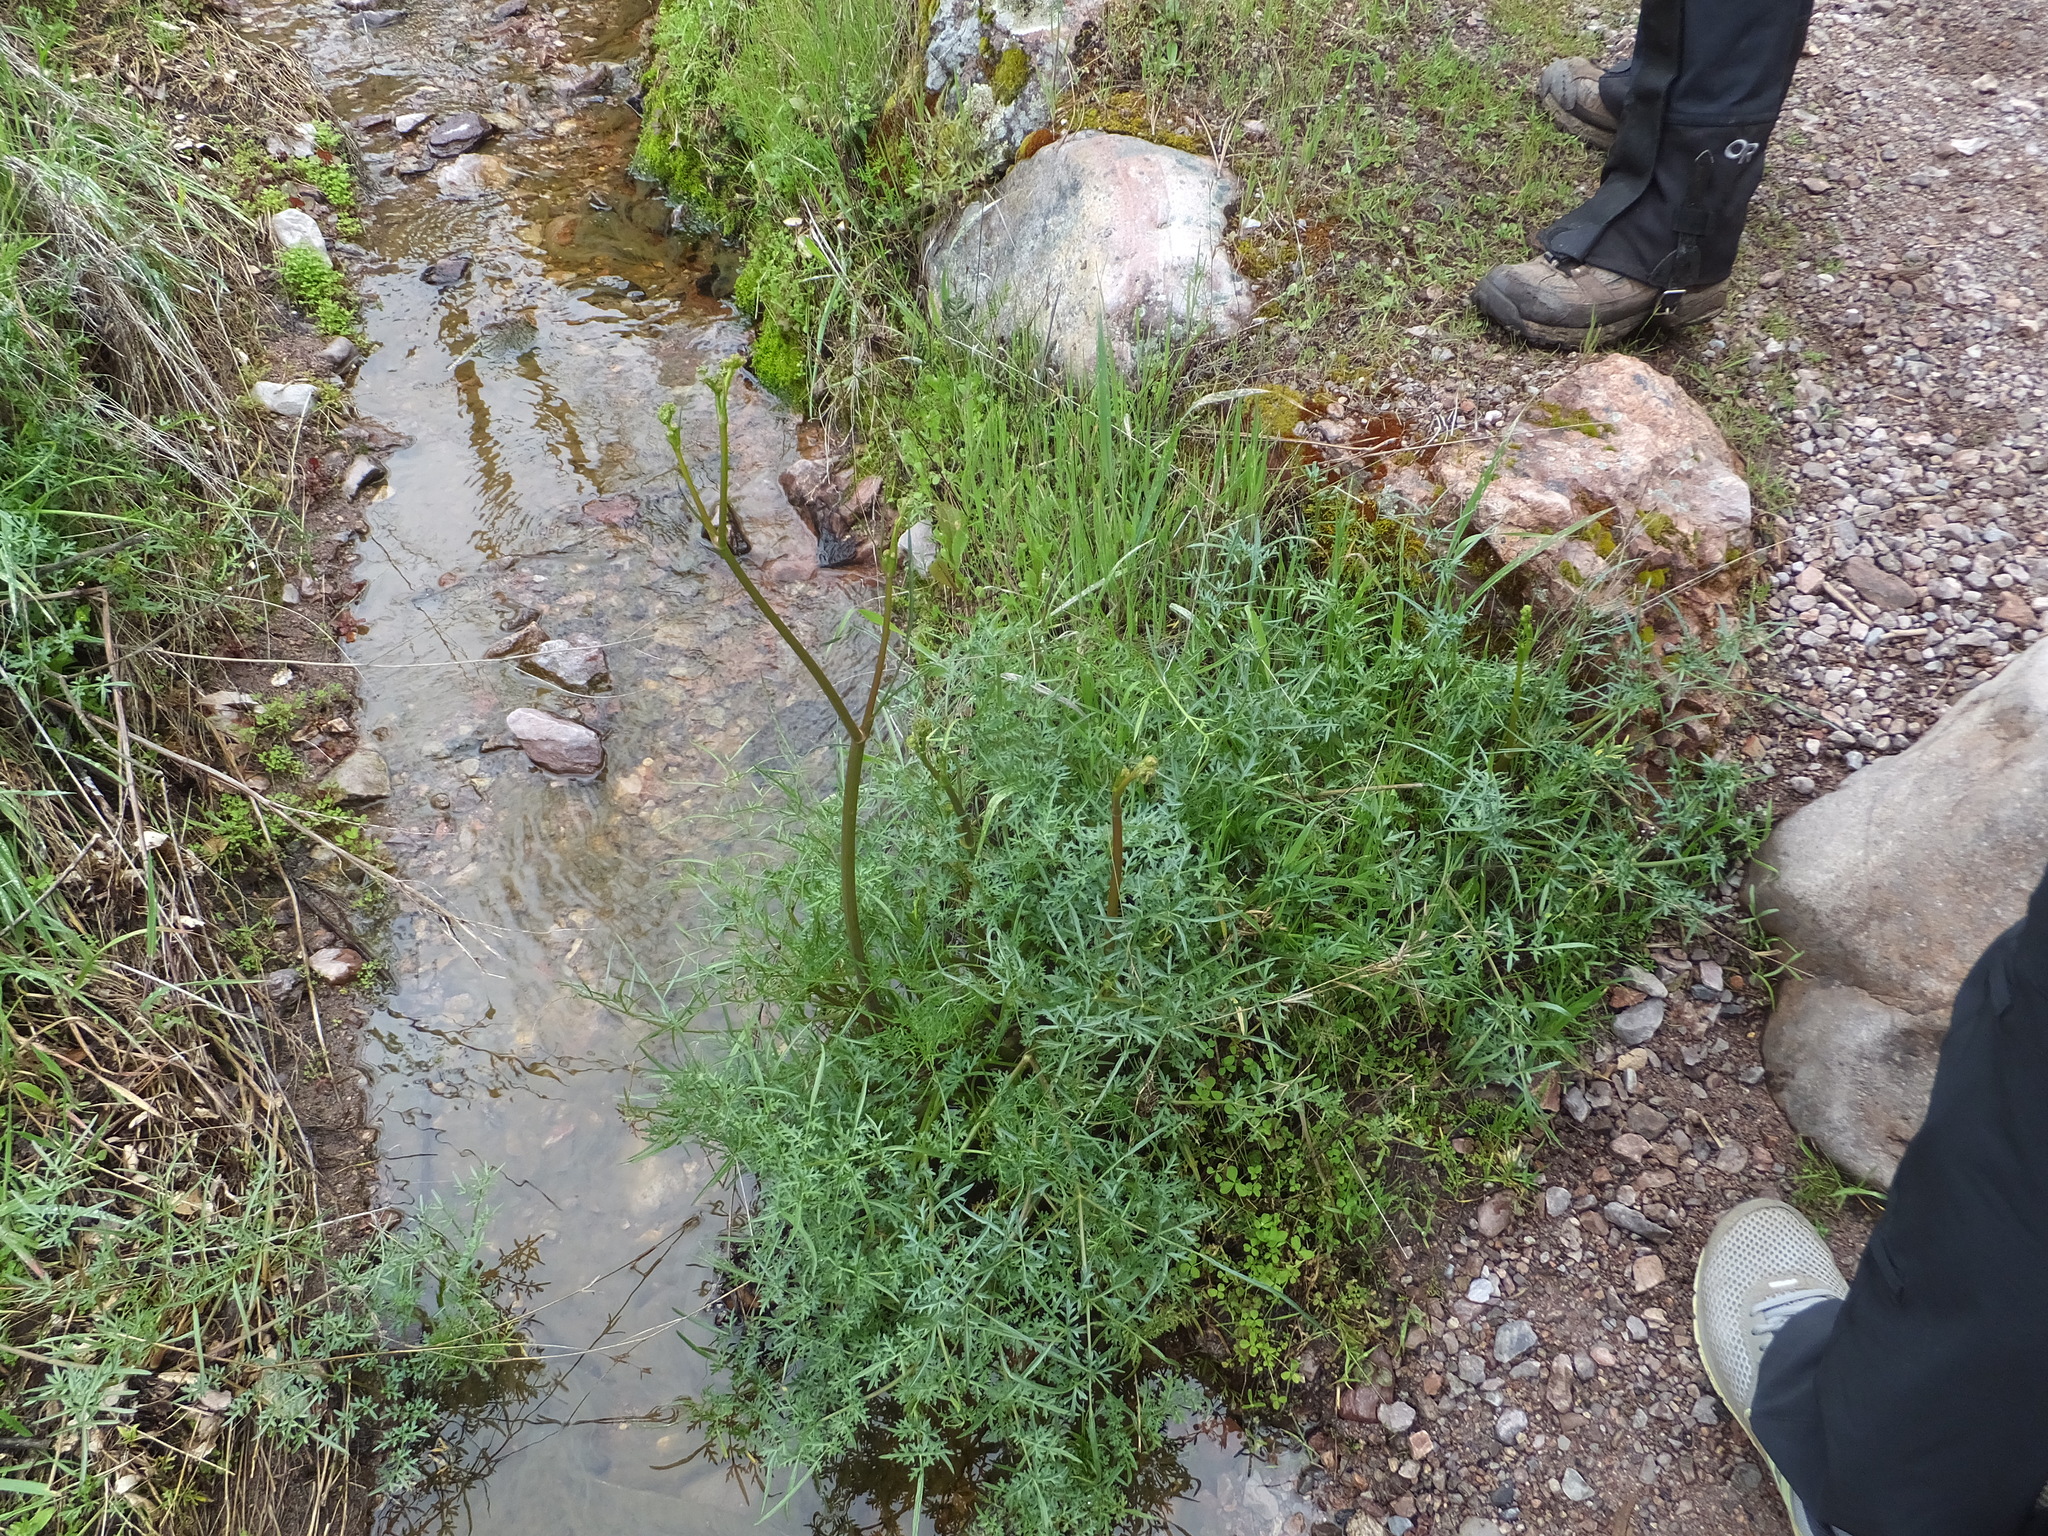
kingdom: Plantae
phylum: Tracheophyta
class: Magnoliopsida
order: Apiales
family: Apiaceae
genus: Perideridia
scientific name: Perideridia californica
